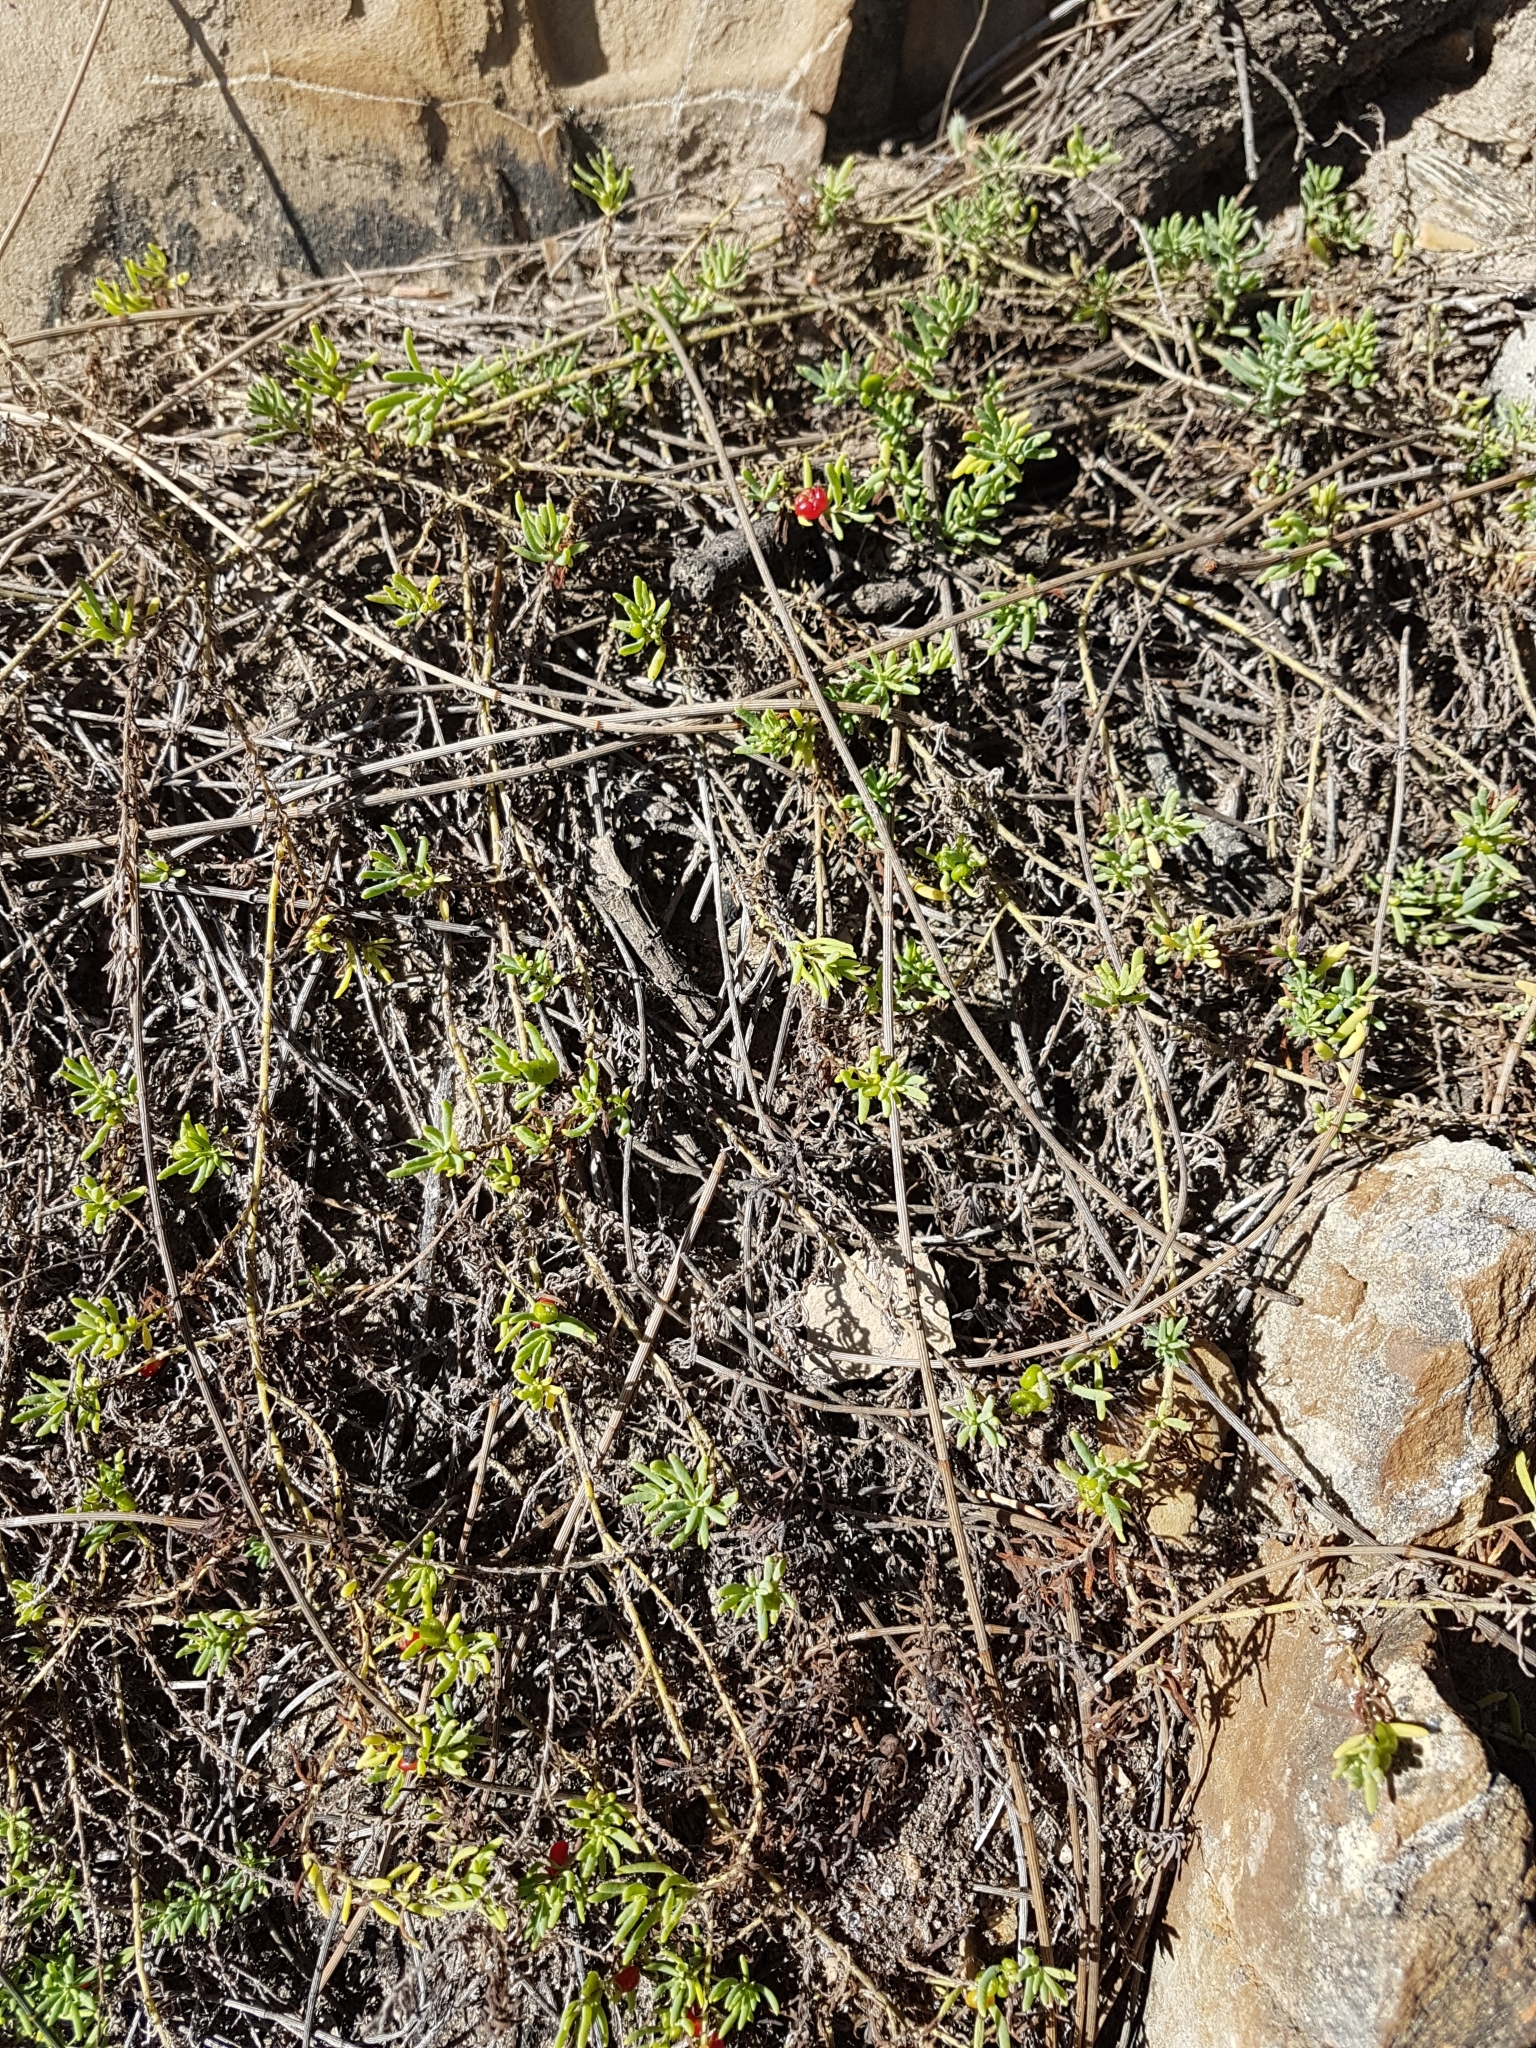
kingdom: Plantae
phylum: Tracheophyta
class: Magnoliopsida
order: Caryophyllales
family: Amaranthaceae
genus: Enchylaena
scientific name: Enchylaena tomentosa
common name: Ruby saltbush
